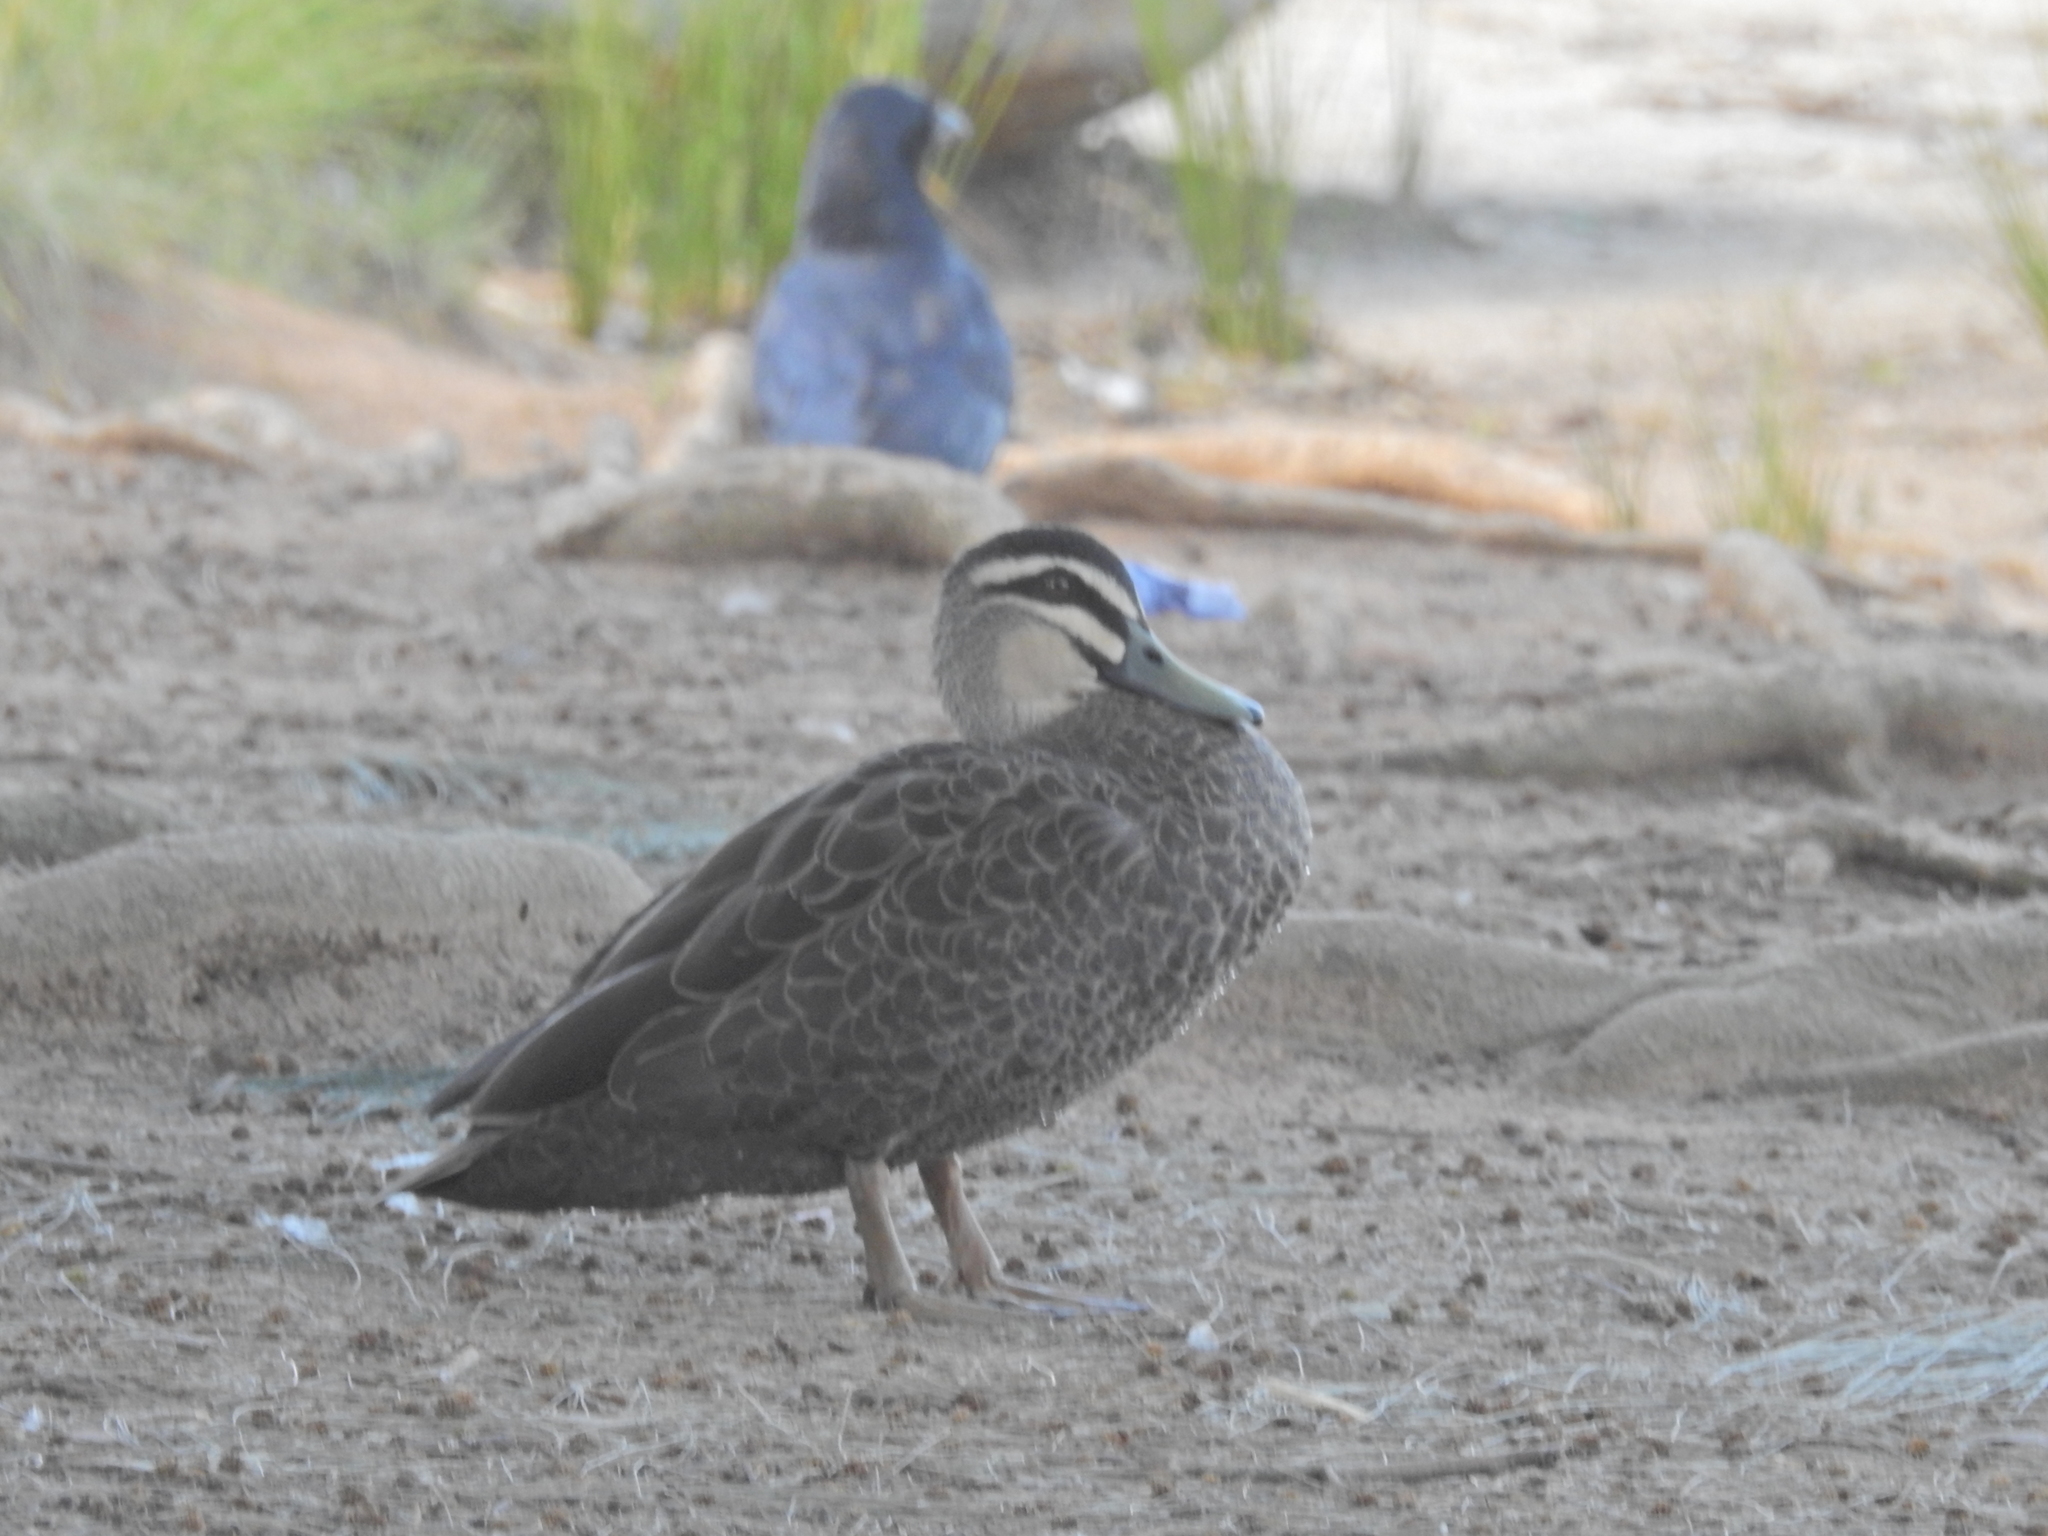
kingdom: Animalia
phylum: Chordata
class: Aves
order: Anseriformes
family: Anatidae
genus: Anas
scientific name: Anas superciliosa
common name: Pacific black duck
